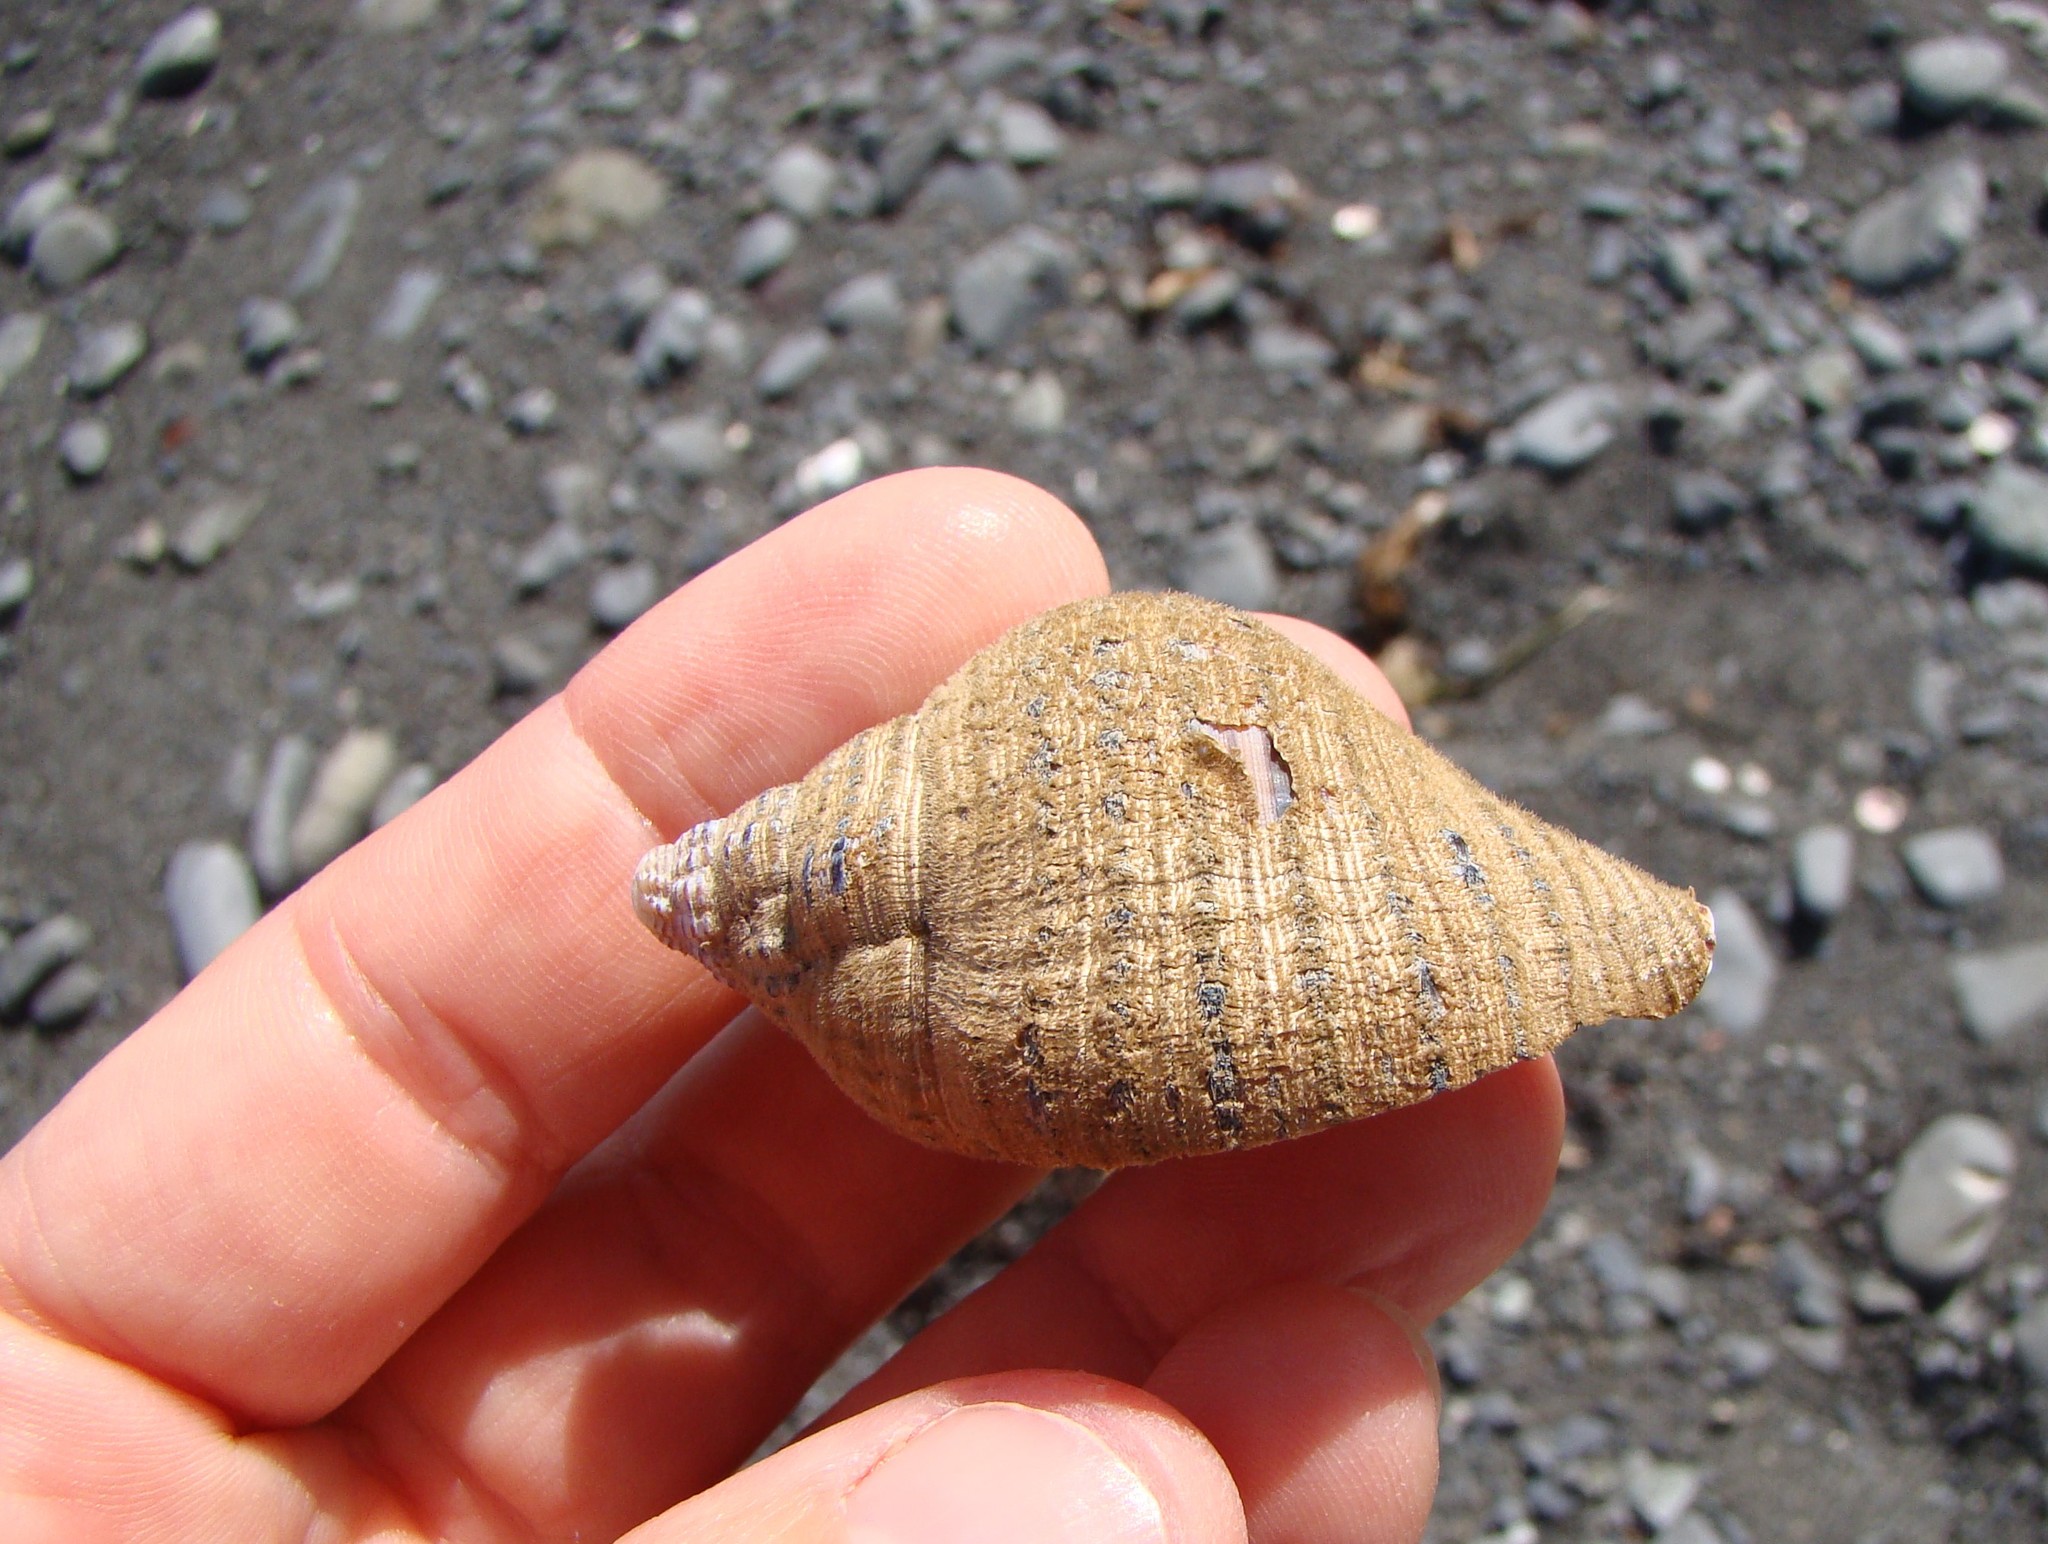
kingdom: Animalia
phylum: Mollusca
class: Gastropoda
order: Littorinimorpha
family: Cymatiidae
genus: Argobuccinum
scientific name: Argobuccinum pustulosum
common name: Pustular triton
